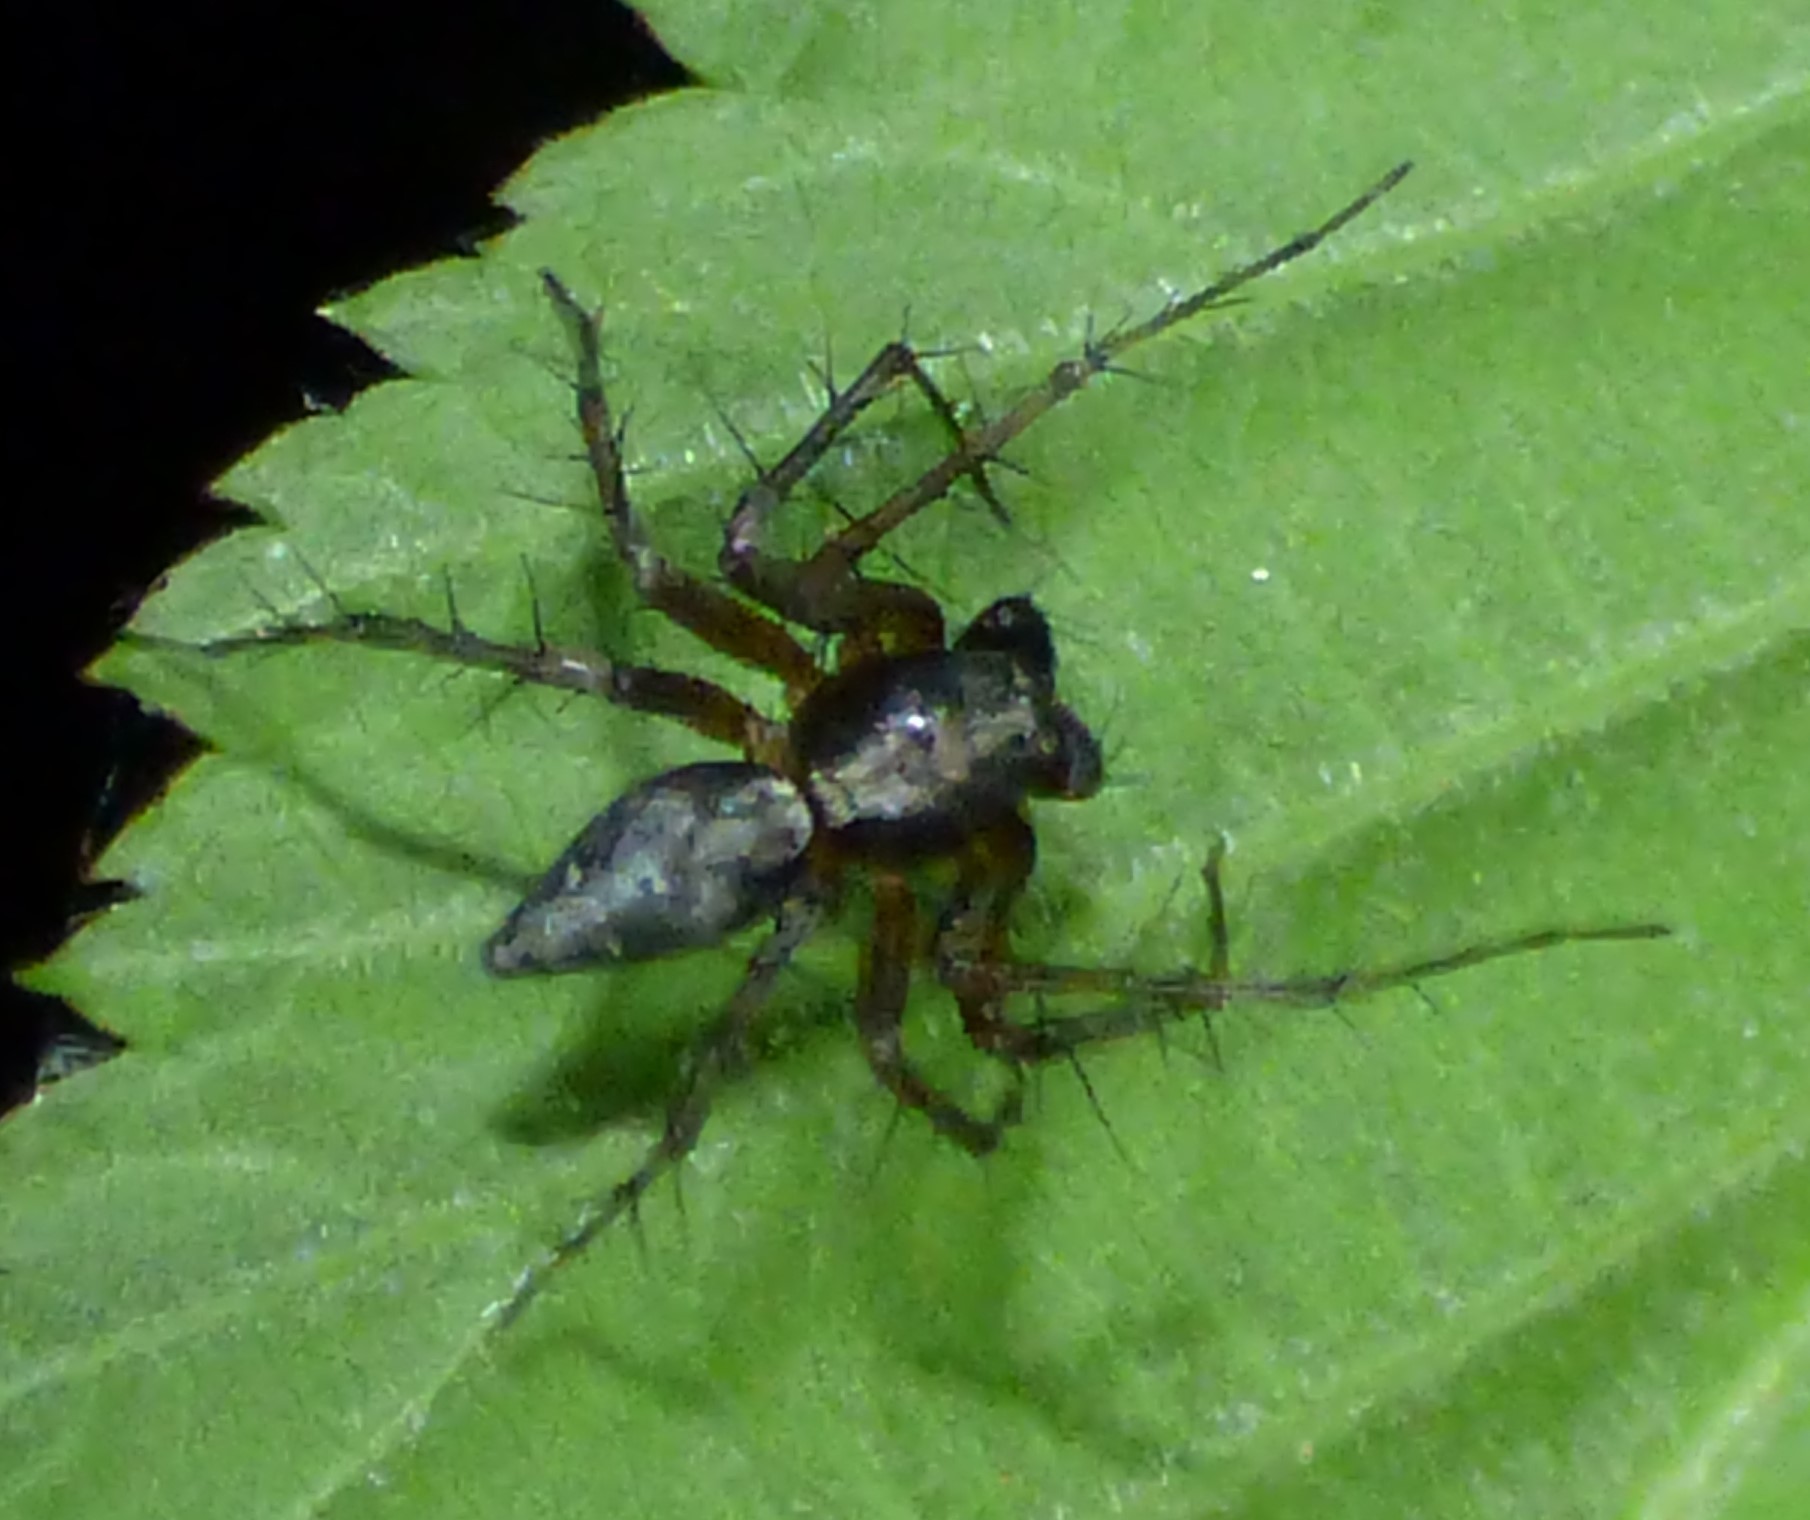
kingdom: Animalia
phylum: Arthropoda
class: Arachnida
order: Araneae
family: Oxyopidae
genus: Oxyopes
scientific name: Oxyopes scalaris
